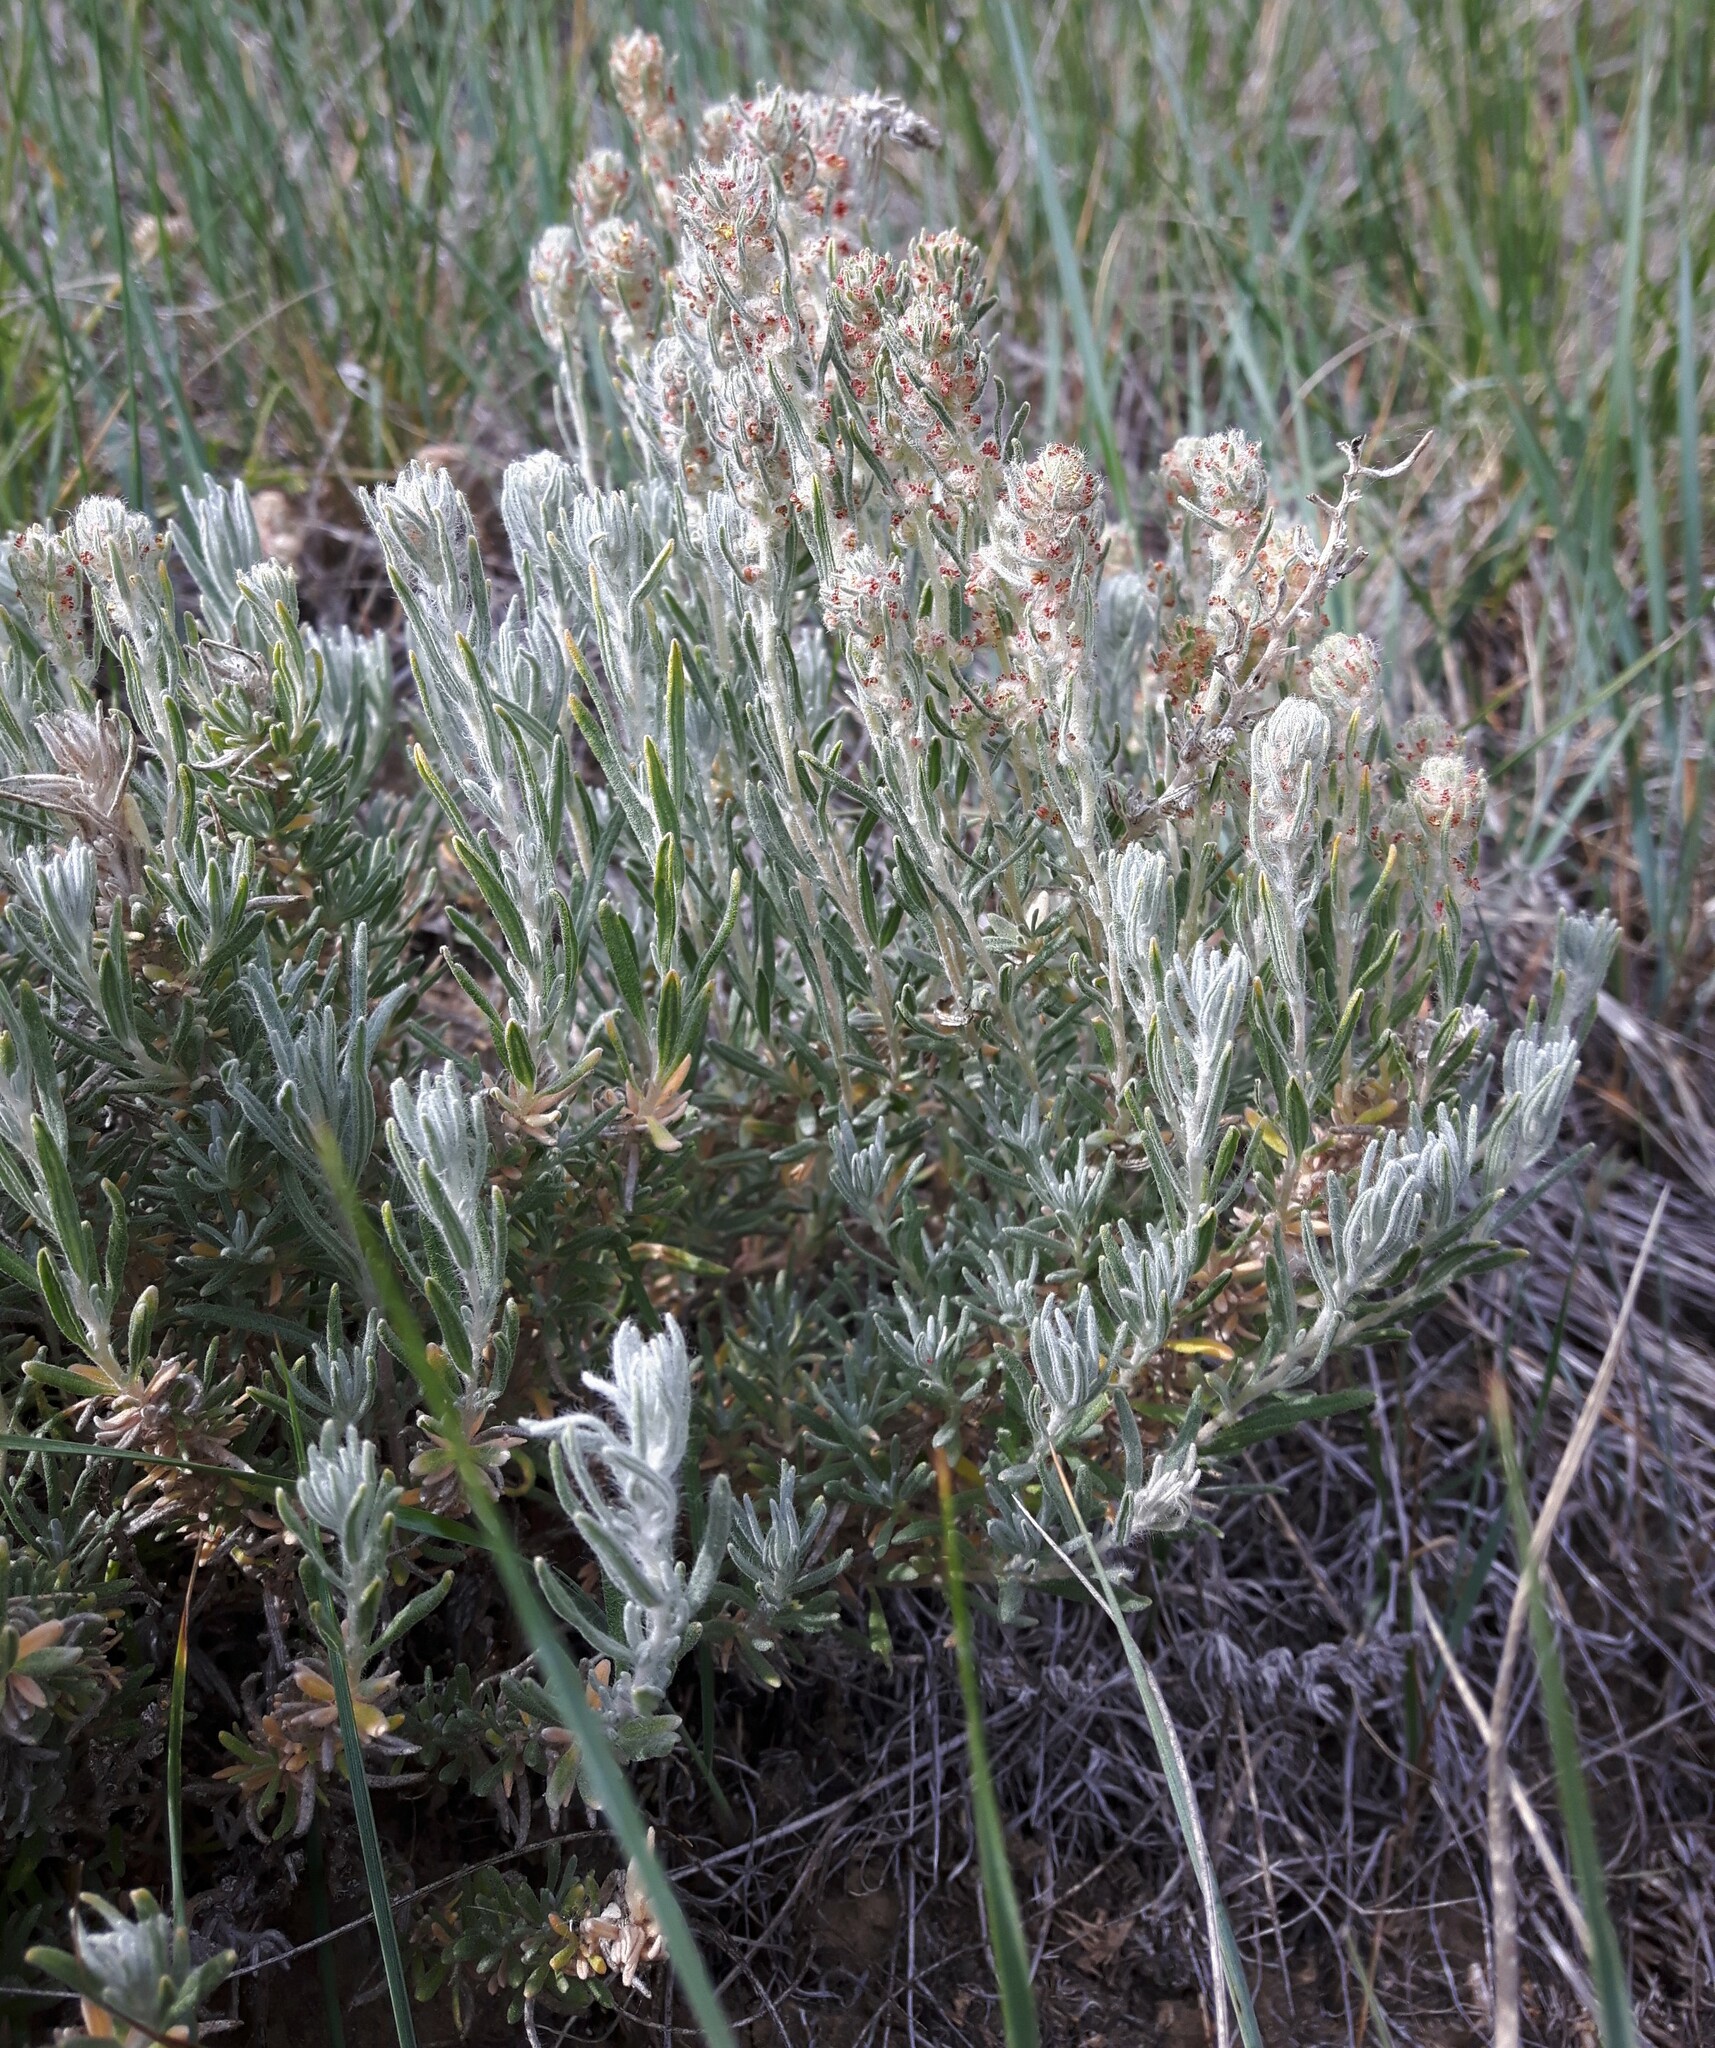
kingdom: Plantae
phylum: Tracheophyta
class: Magnoliopsida
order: Caryophyllales
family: Amaranthaceae
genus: Krascheninnikovia
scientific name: Krascheninnikovia lanata
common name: Winterfat
